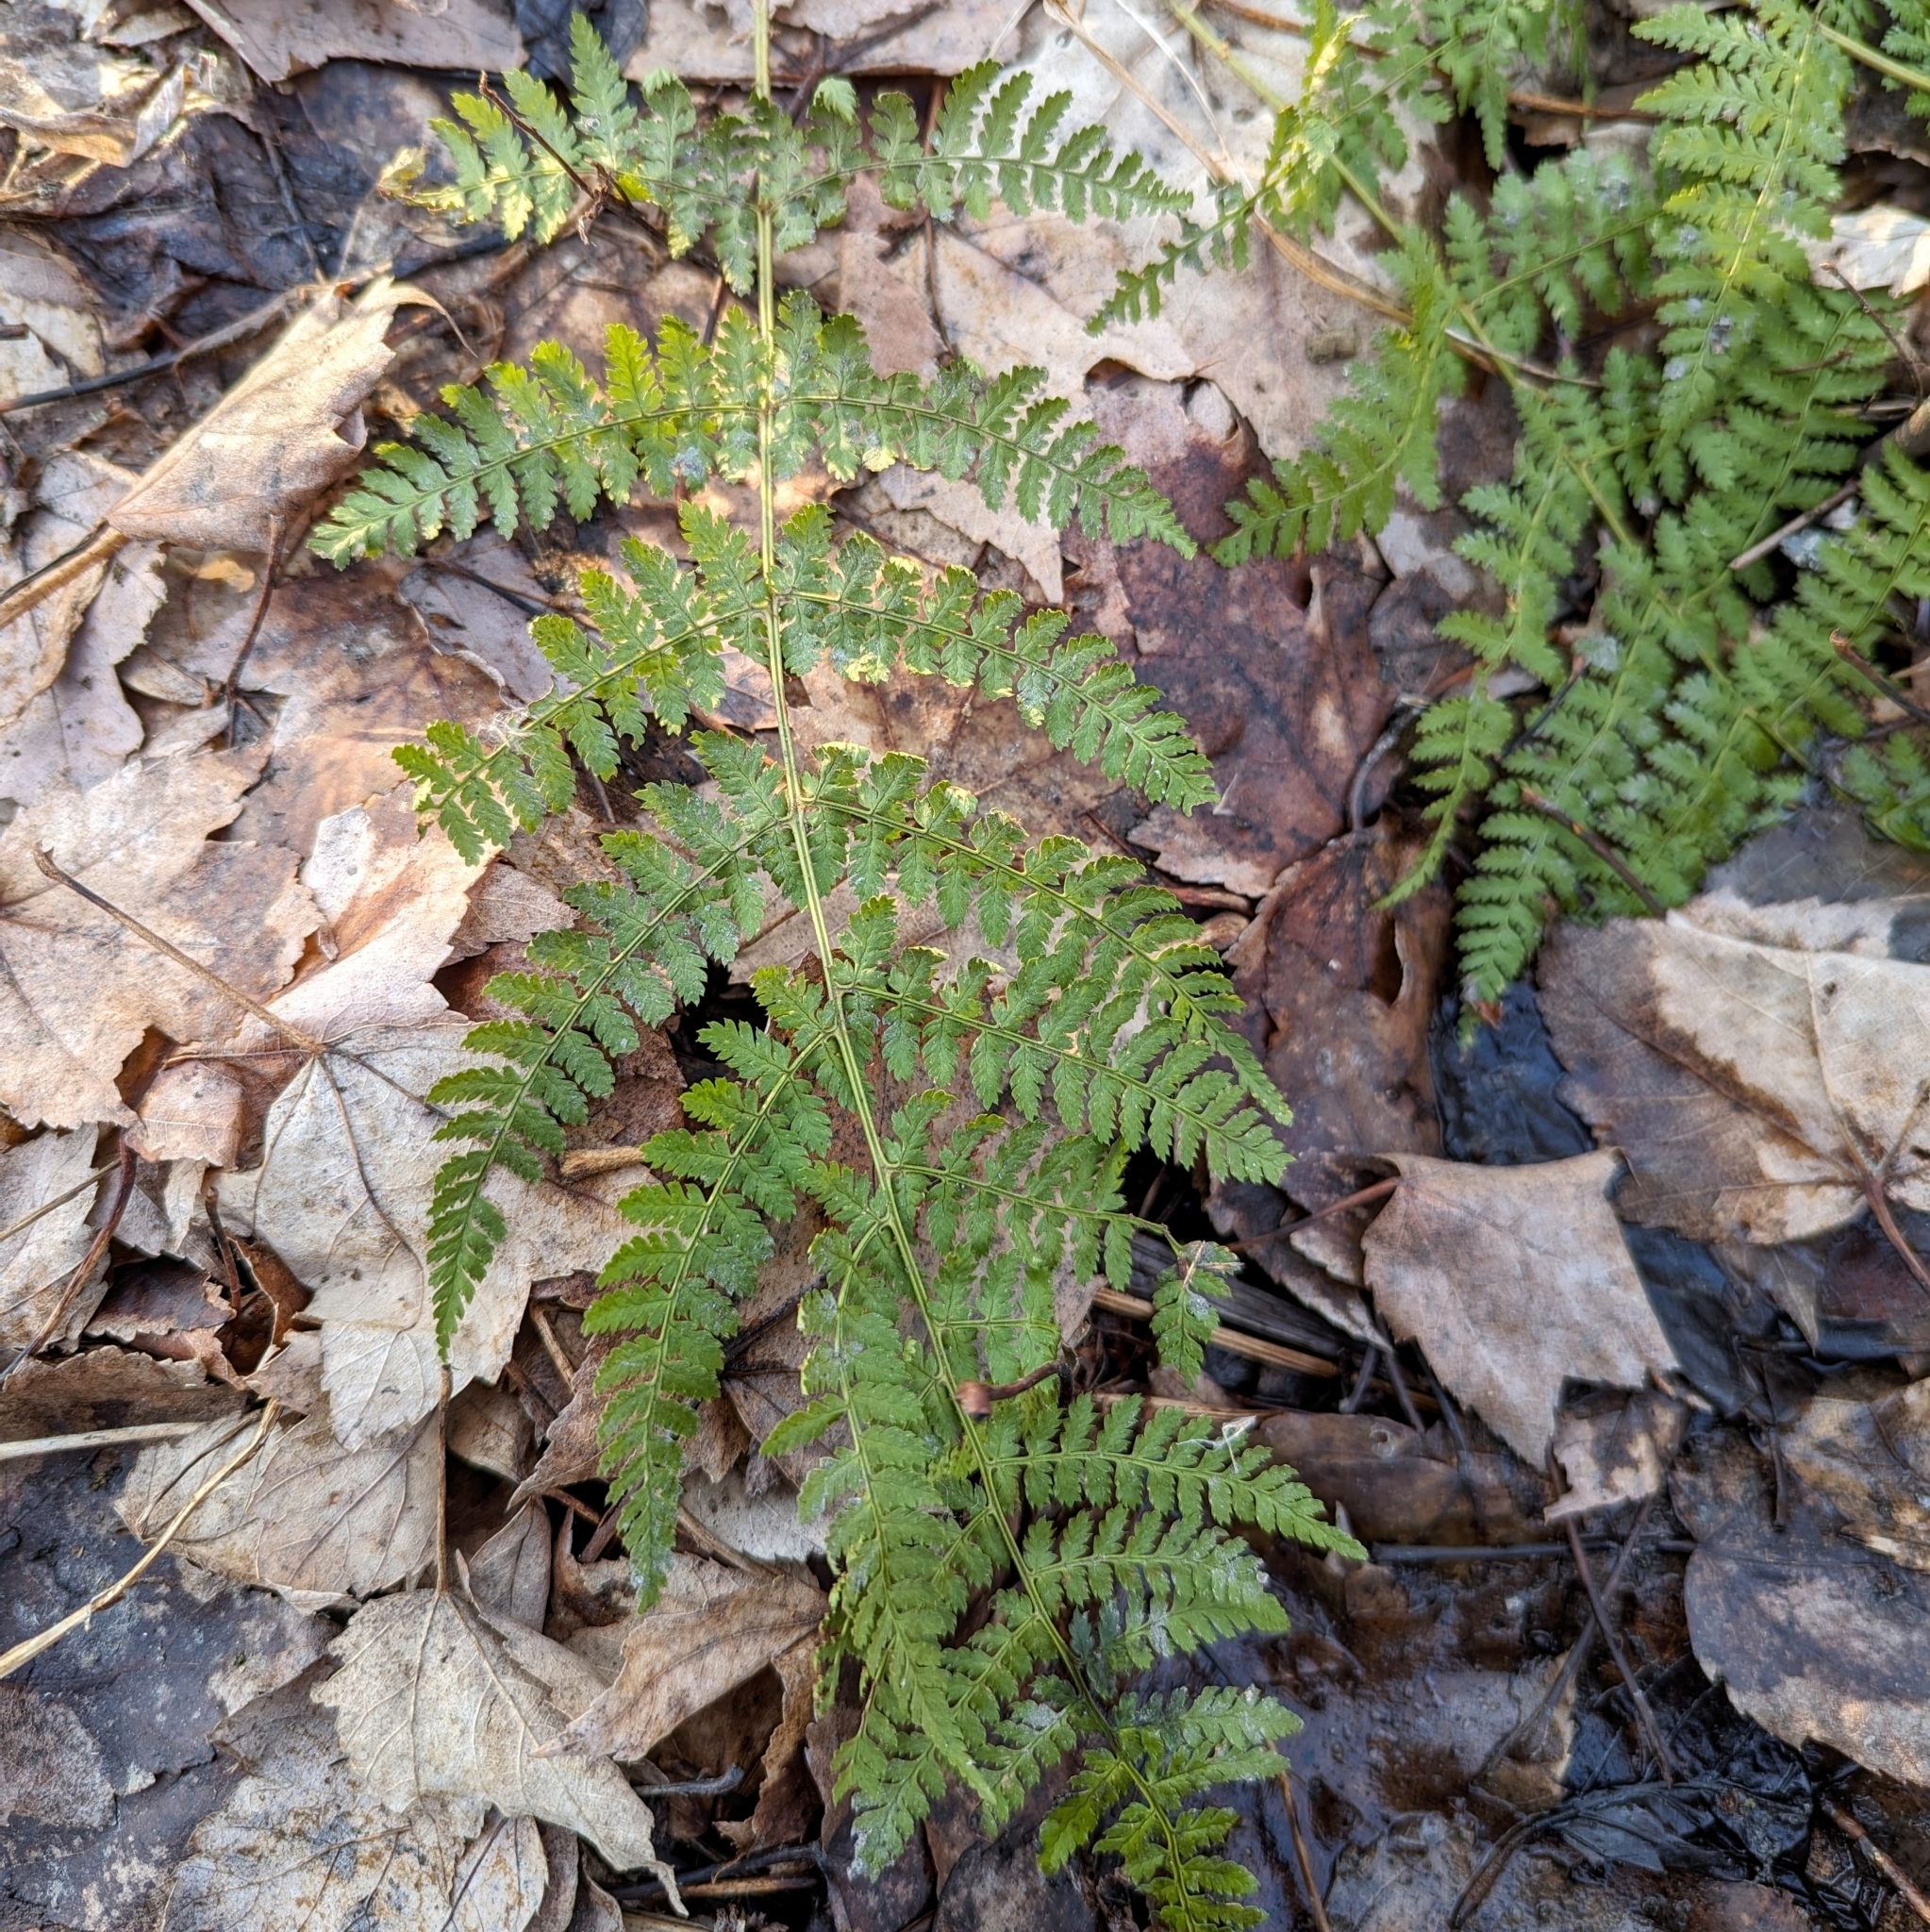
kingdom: Plantae
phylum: Tracheophyta
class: Polypodiopsida
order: Polypodiales
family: Dryopteridaceae
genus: Dryopteris
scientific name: Dryopteris intermedia
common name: Evergreen wood fern
